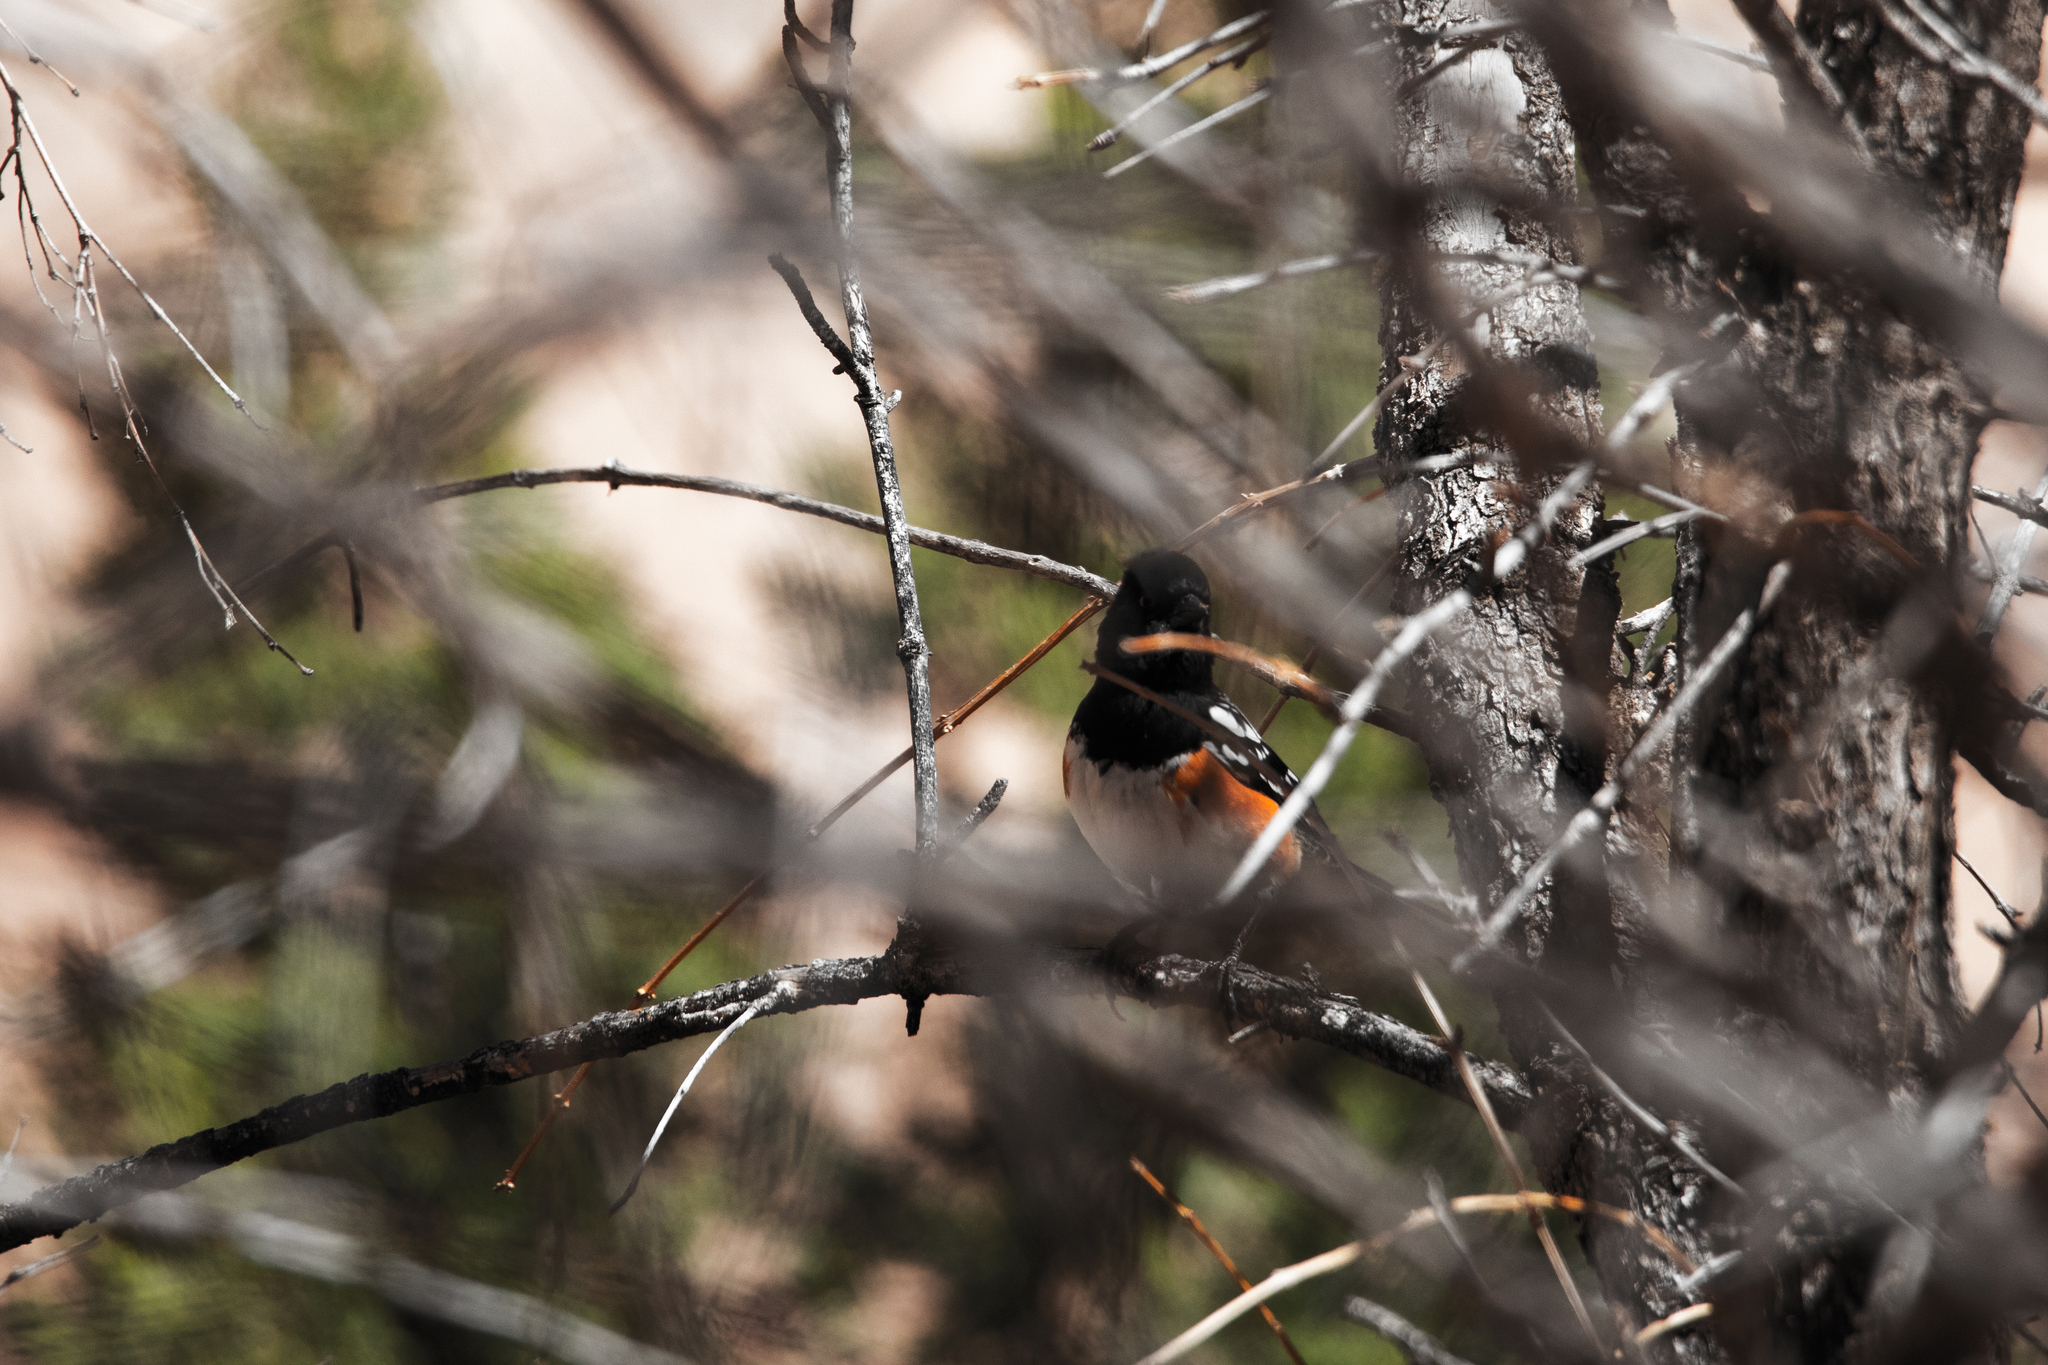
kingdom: Animalia
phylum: Chordata
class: Aves
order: Passeriformes
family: Passerellidae
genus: Pipilo
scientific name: Pipilo maculatus
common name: Spotted towhee
